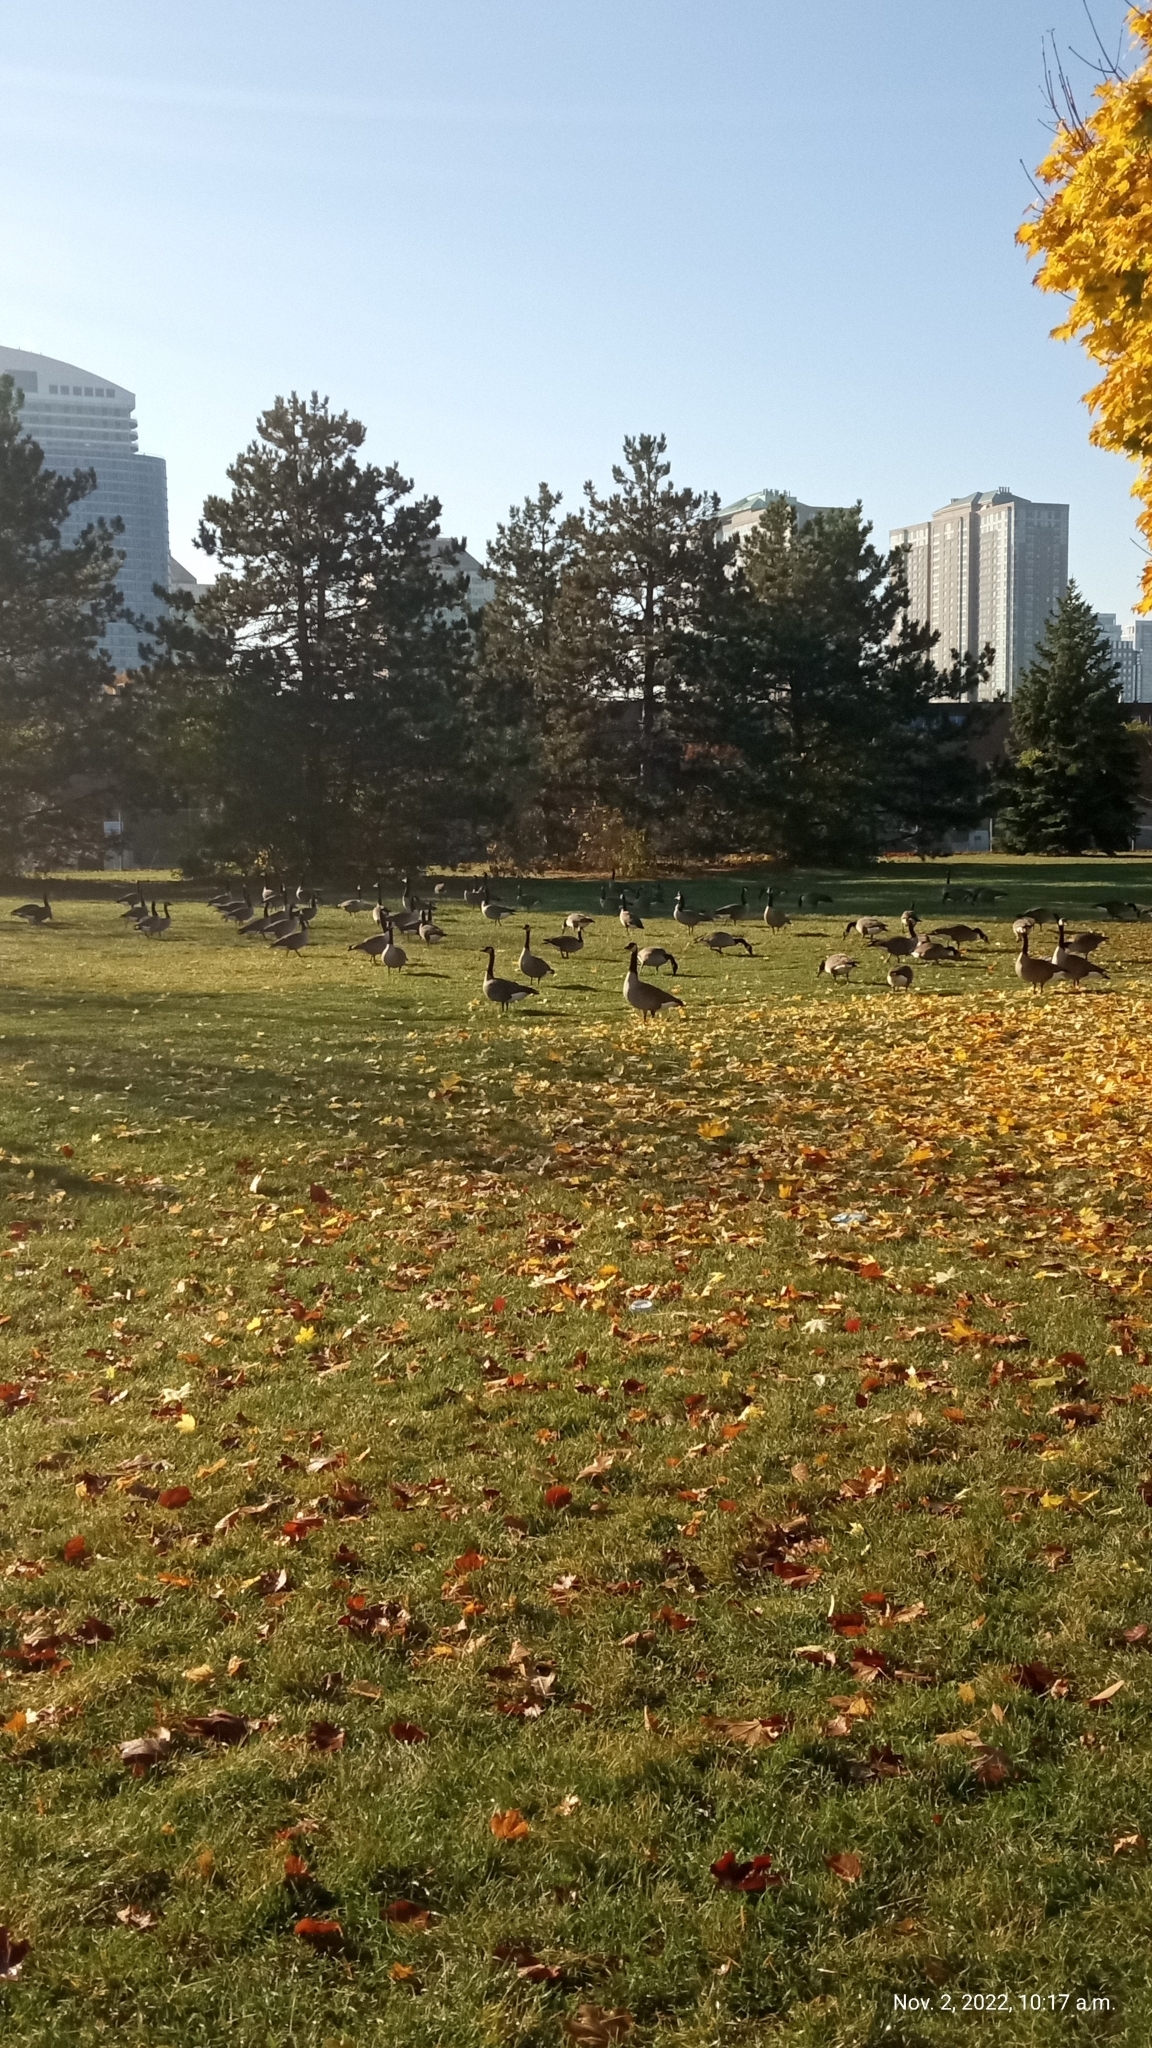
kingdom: Animalia
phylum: Chordata
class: Aves
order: Anseriformes
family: Anatidae
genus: Branta
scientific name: Branta canadensis
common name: Canada goose
